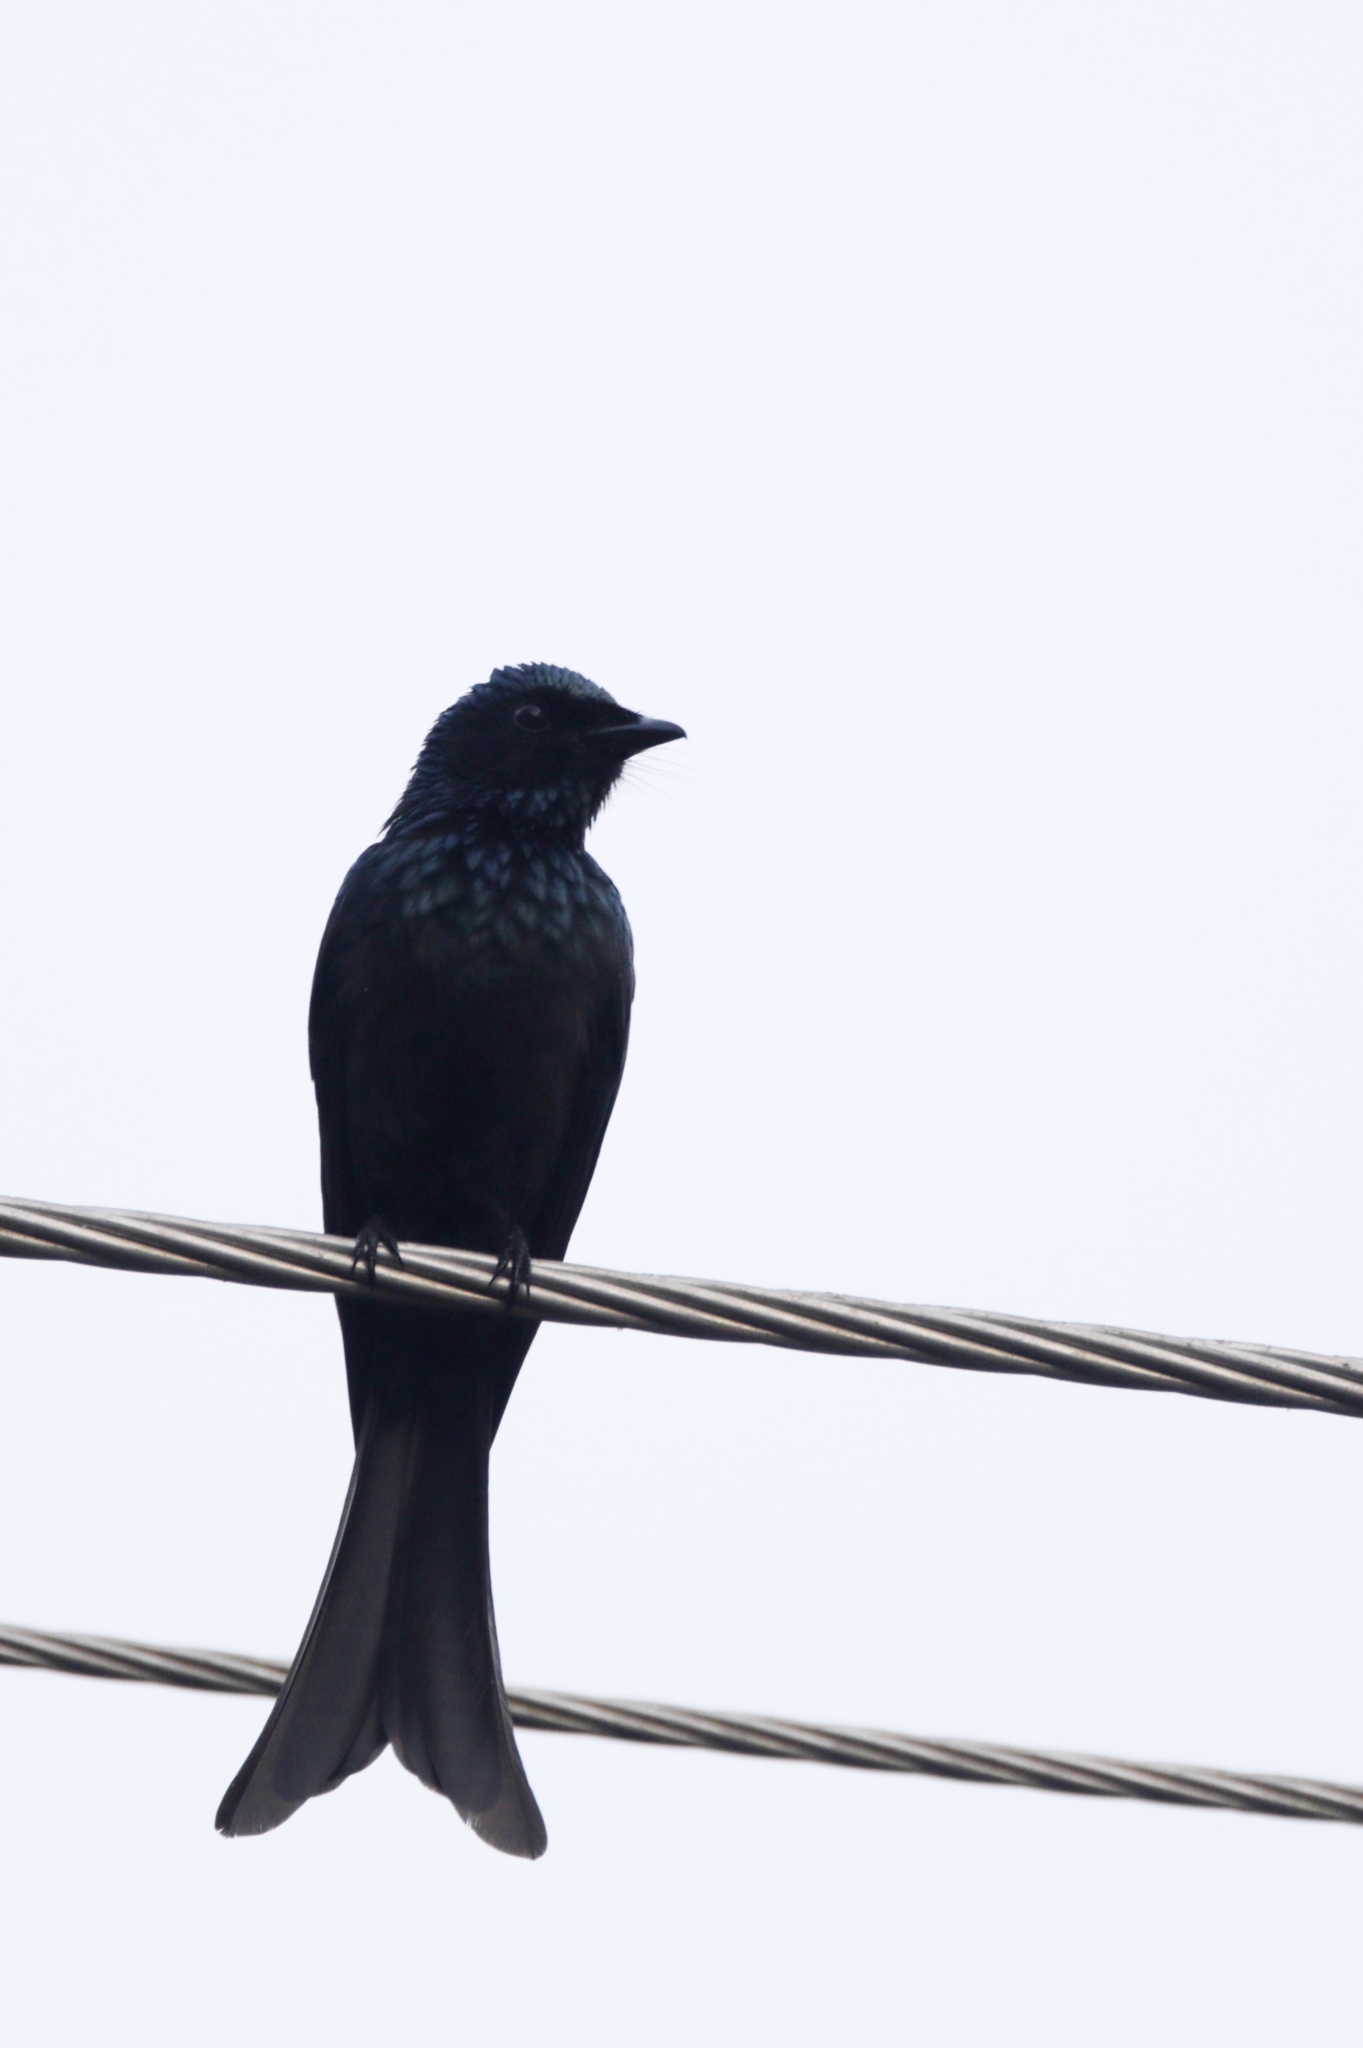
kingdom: Animalia
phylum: Chordata
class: Aves
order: Passeriformes
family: Dicruridae
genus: Dicrurus
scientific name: Dicrurus aeneus
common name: Bronzed drongo
